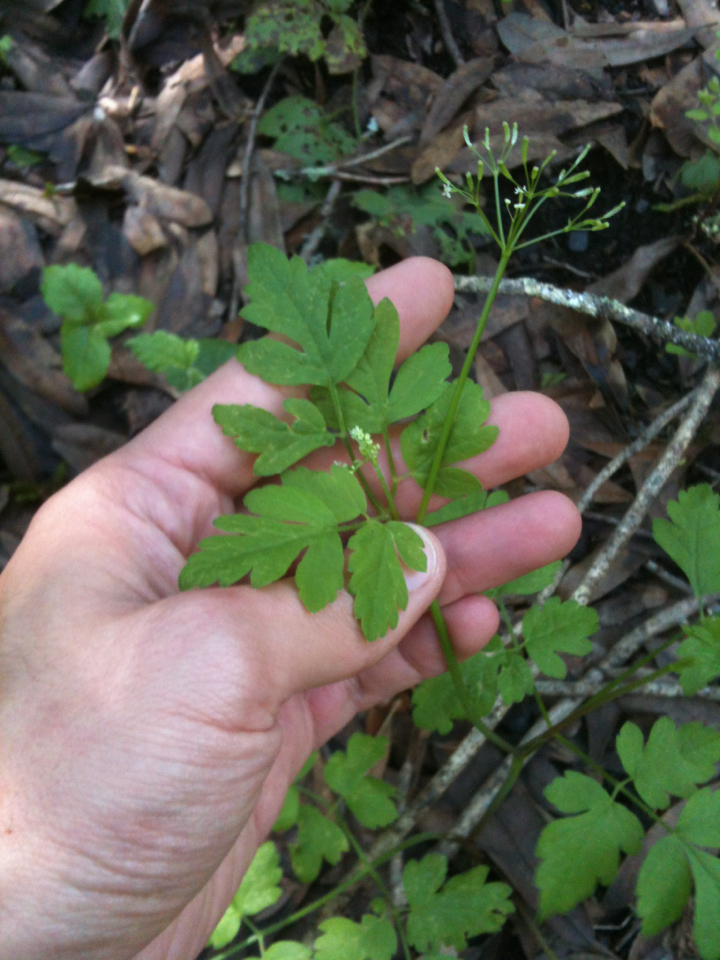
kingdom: Plantae
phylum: Tracheophyta
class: Magnoliopsida
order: Apiales
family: Apiaceae
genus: Osmorhiza
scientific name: Osmorhiza berteroi
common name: Mountain sweet cicely
